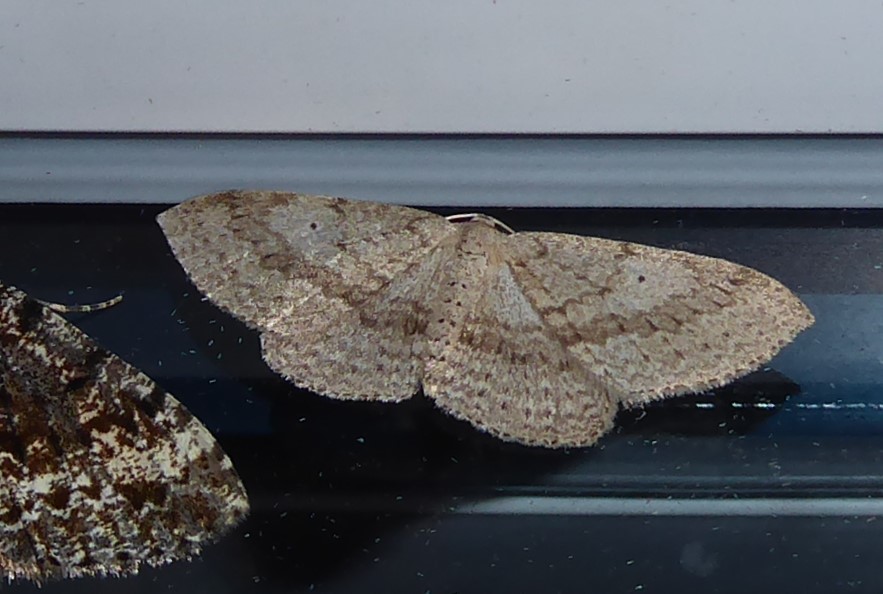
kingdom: Animalia
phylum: Arthropoda
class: Insecta
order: Lepidoptera
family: Geometridae
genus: Poecilasthena
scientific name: Poecilasthena schistaria
